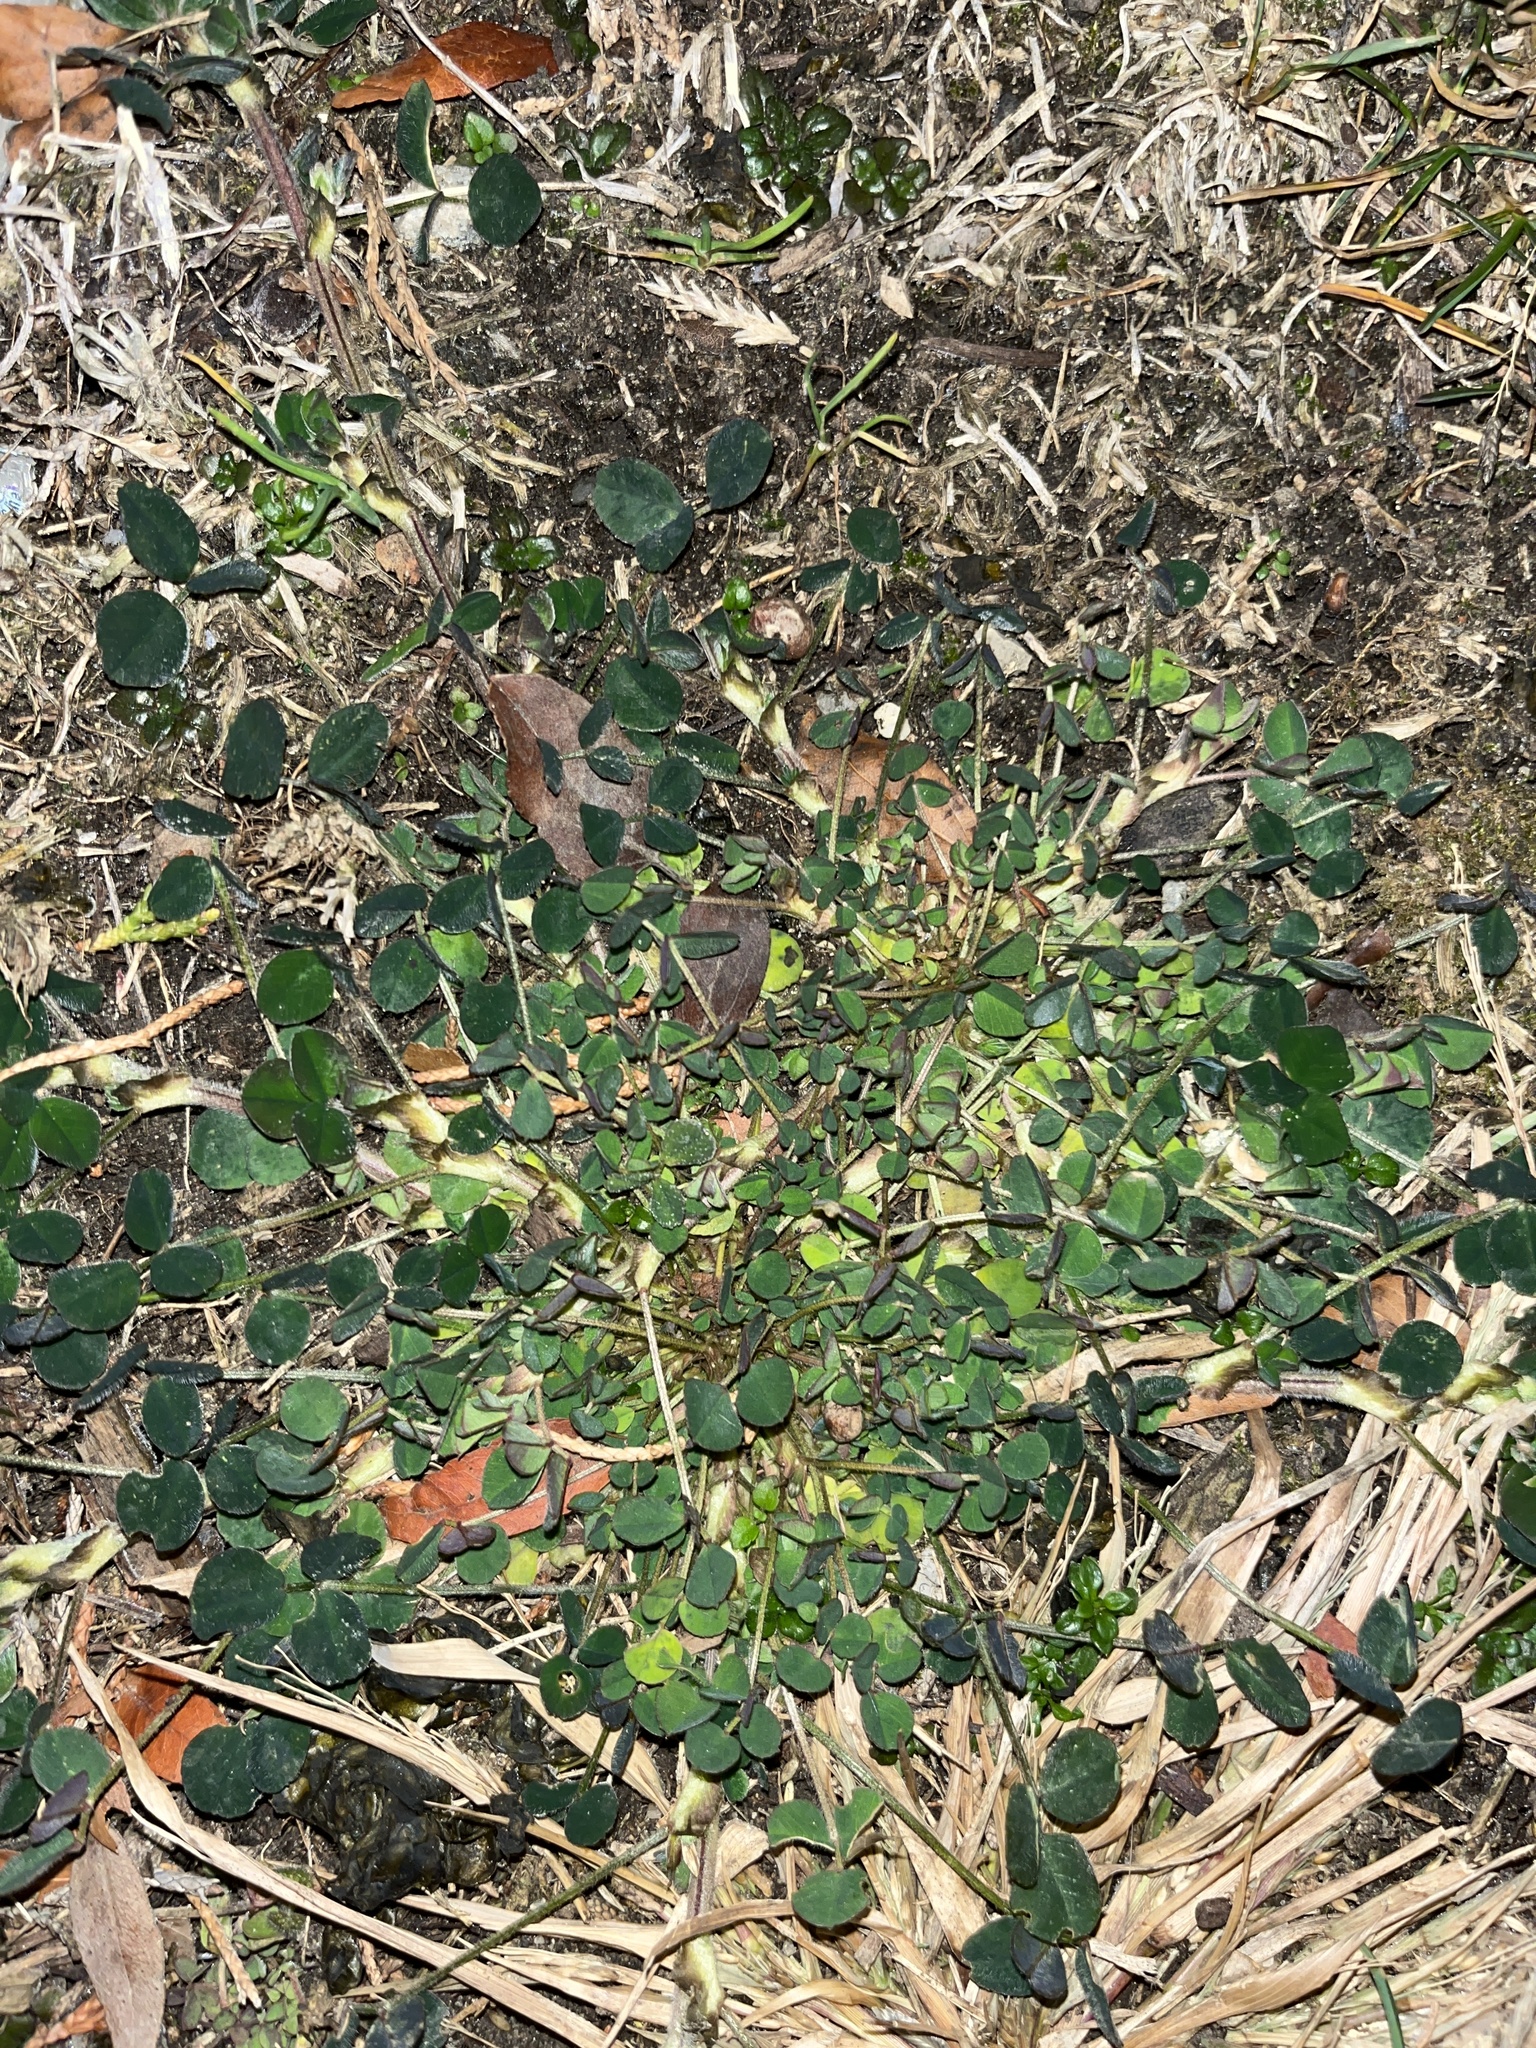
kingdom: Plantae
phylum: Tracheophyta
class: Magnoliopsida
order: Fabales
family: Fabaceae
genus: Medicago
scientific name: Medicago lupulina
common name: Black medick
